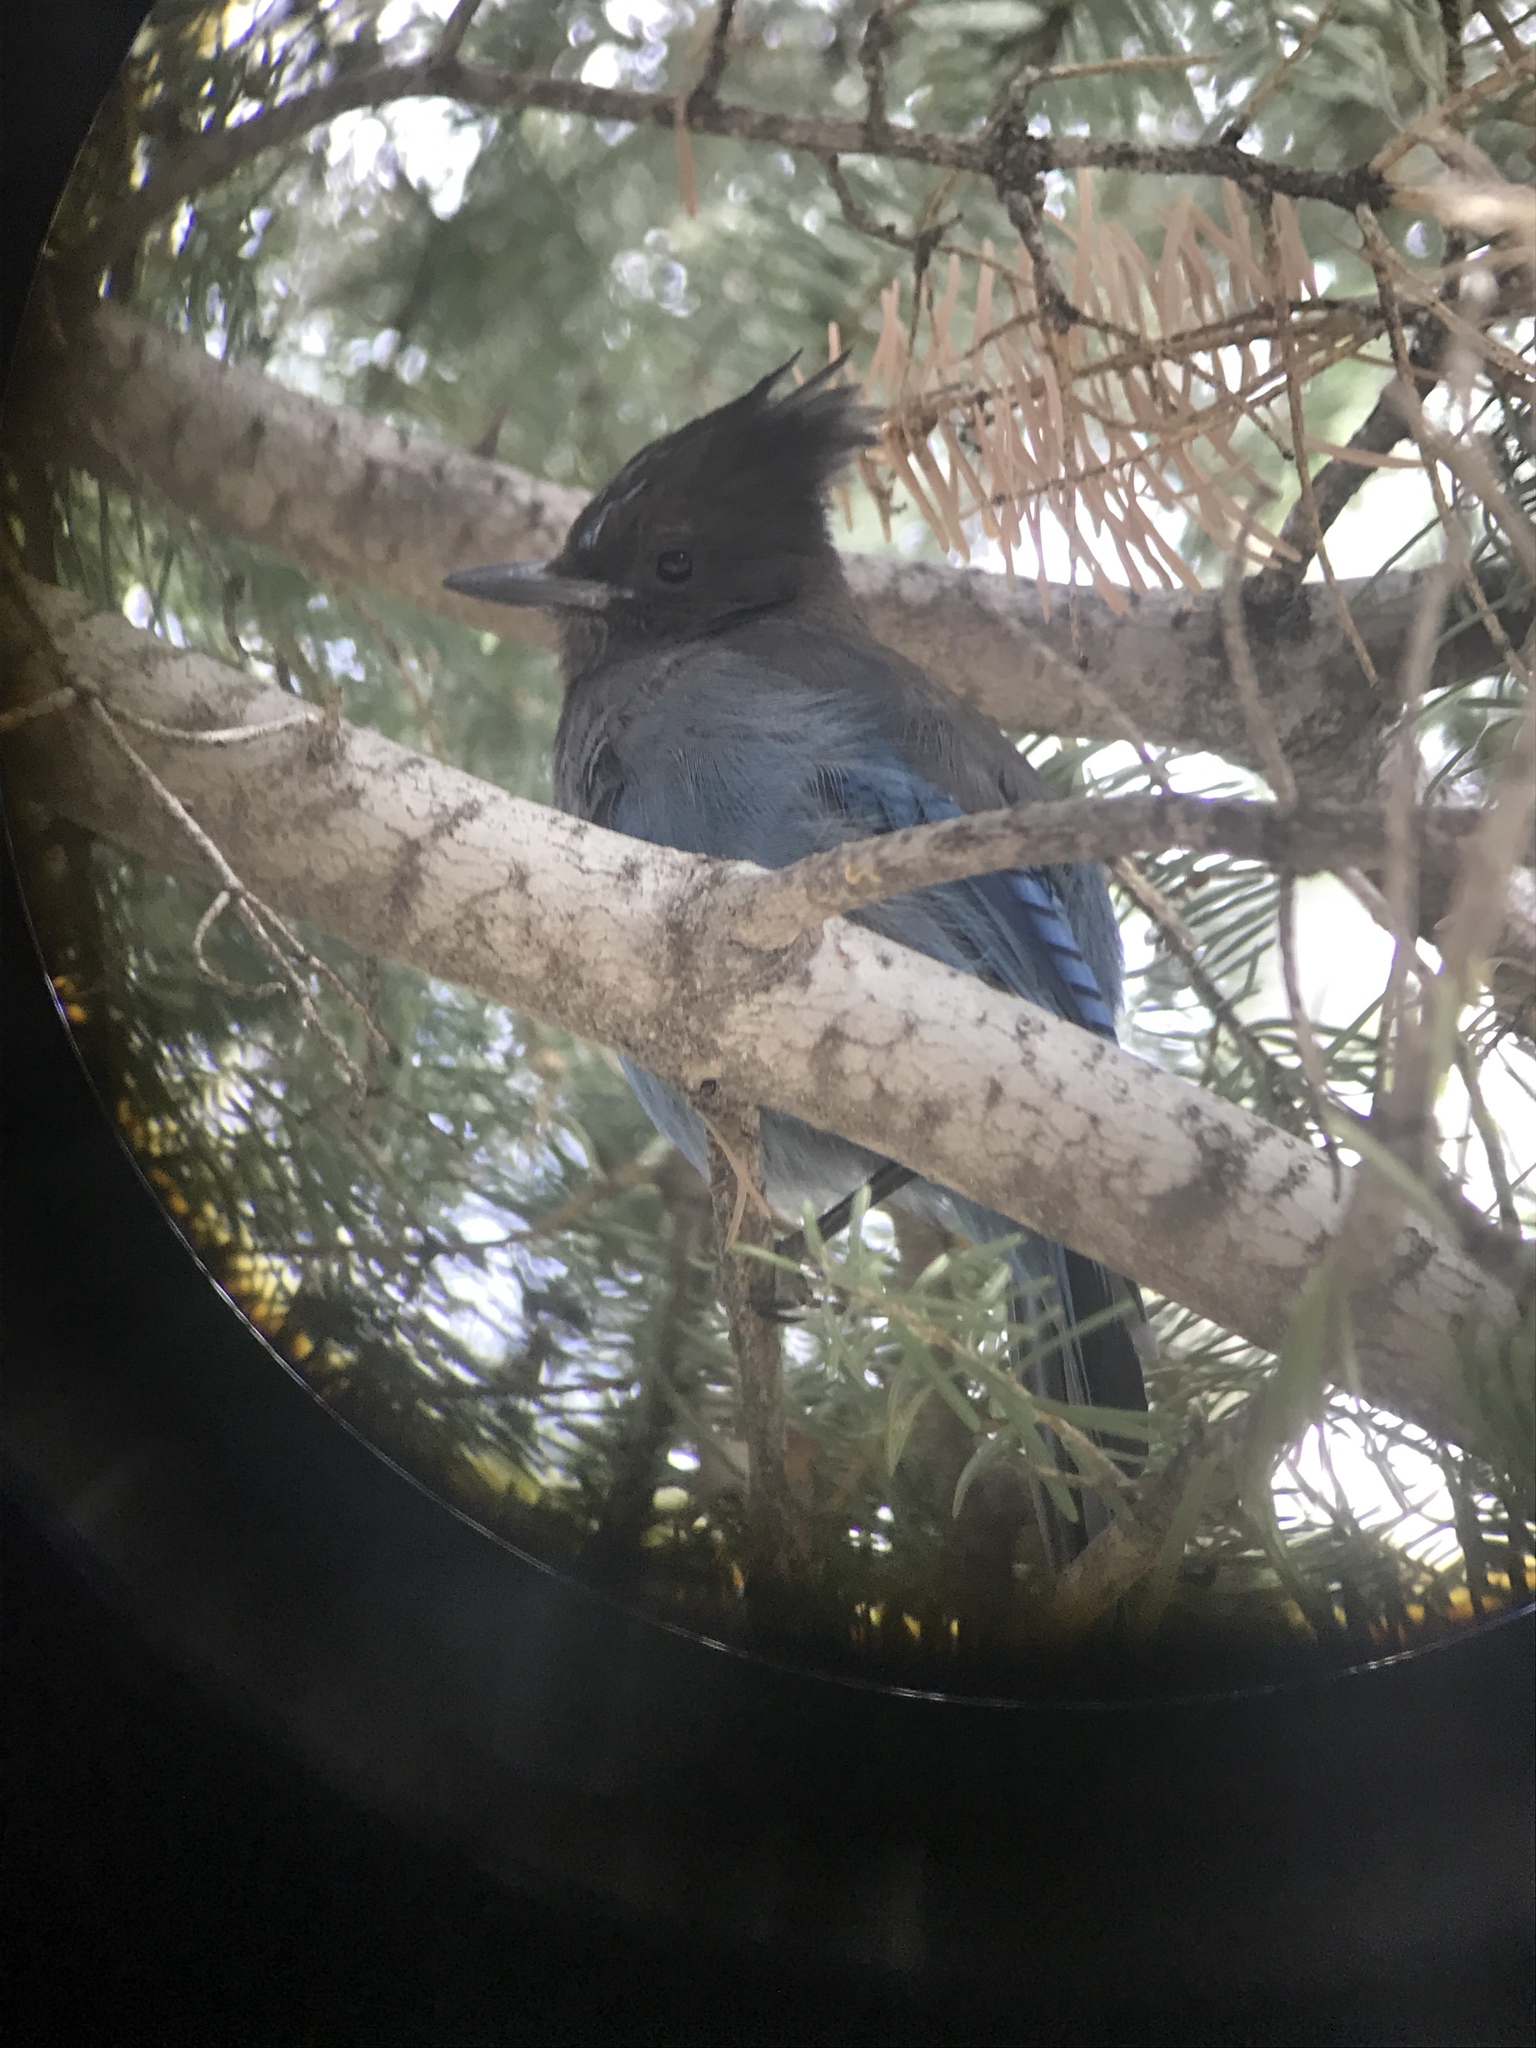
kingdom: Animalia
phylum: Chordata
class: Aves
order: Passeriformes
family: Corvidae
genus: Cyanocitta
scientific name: Cyanocitta stelleri
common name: Steller's jay
